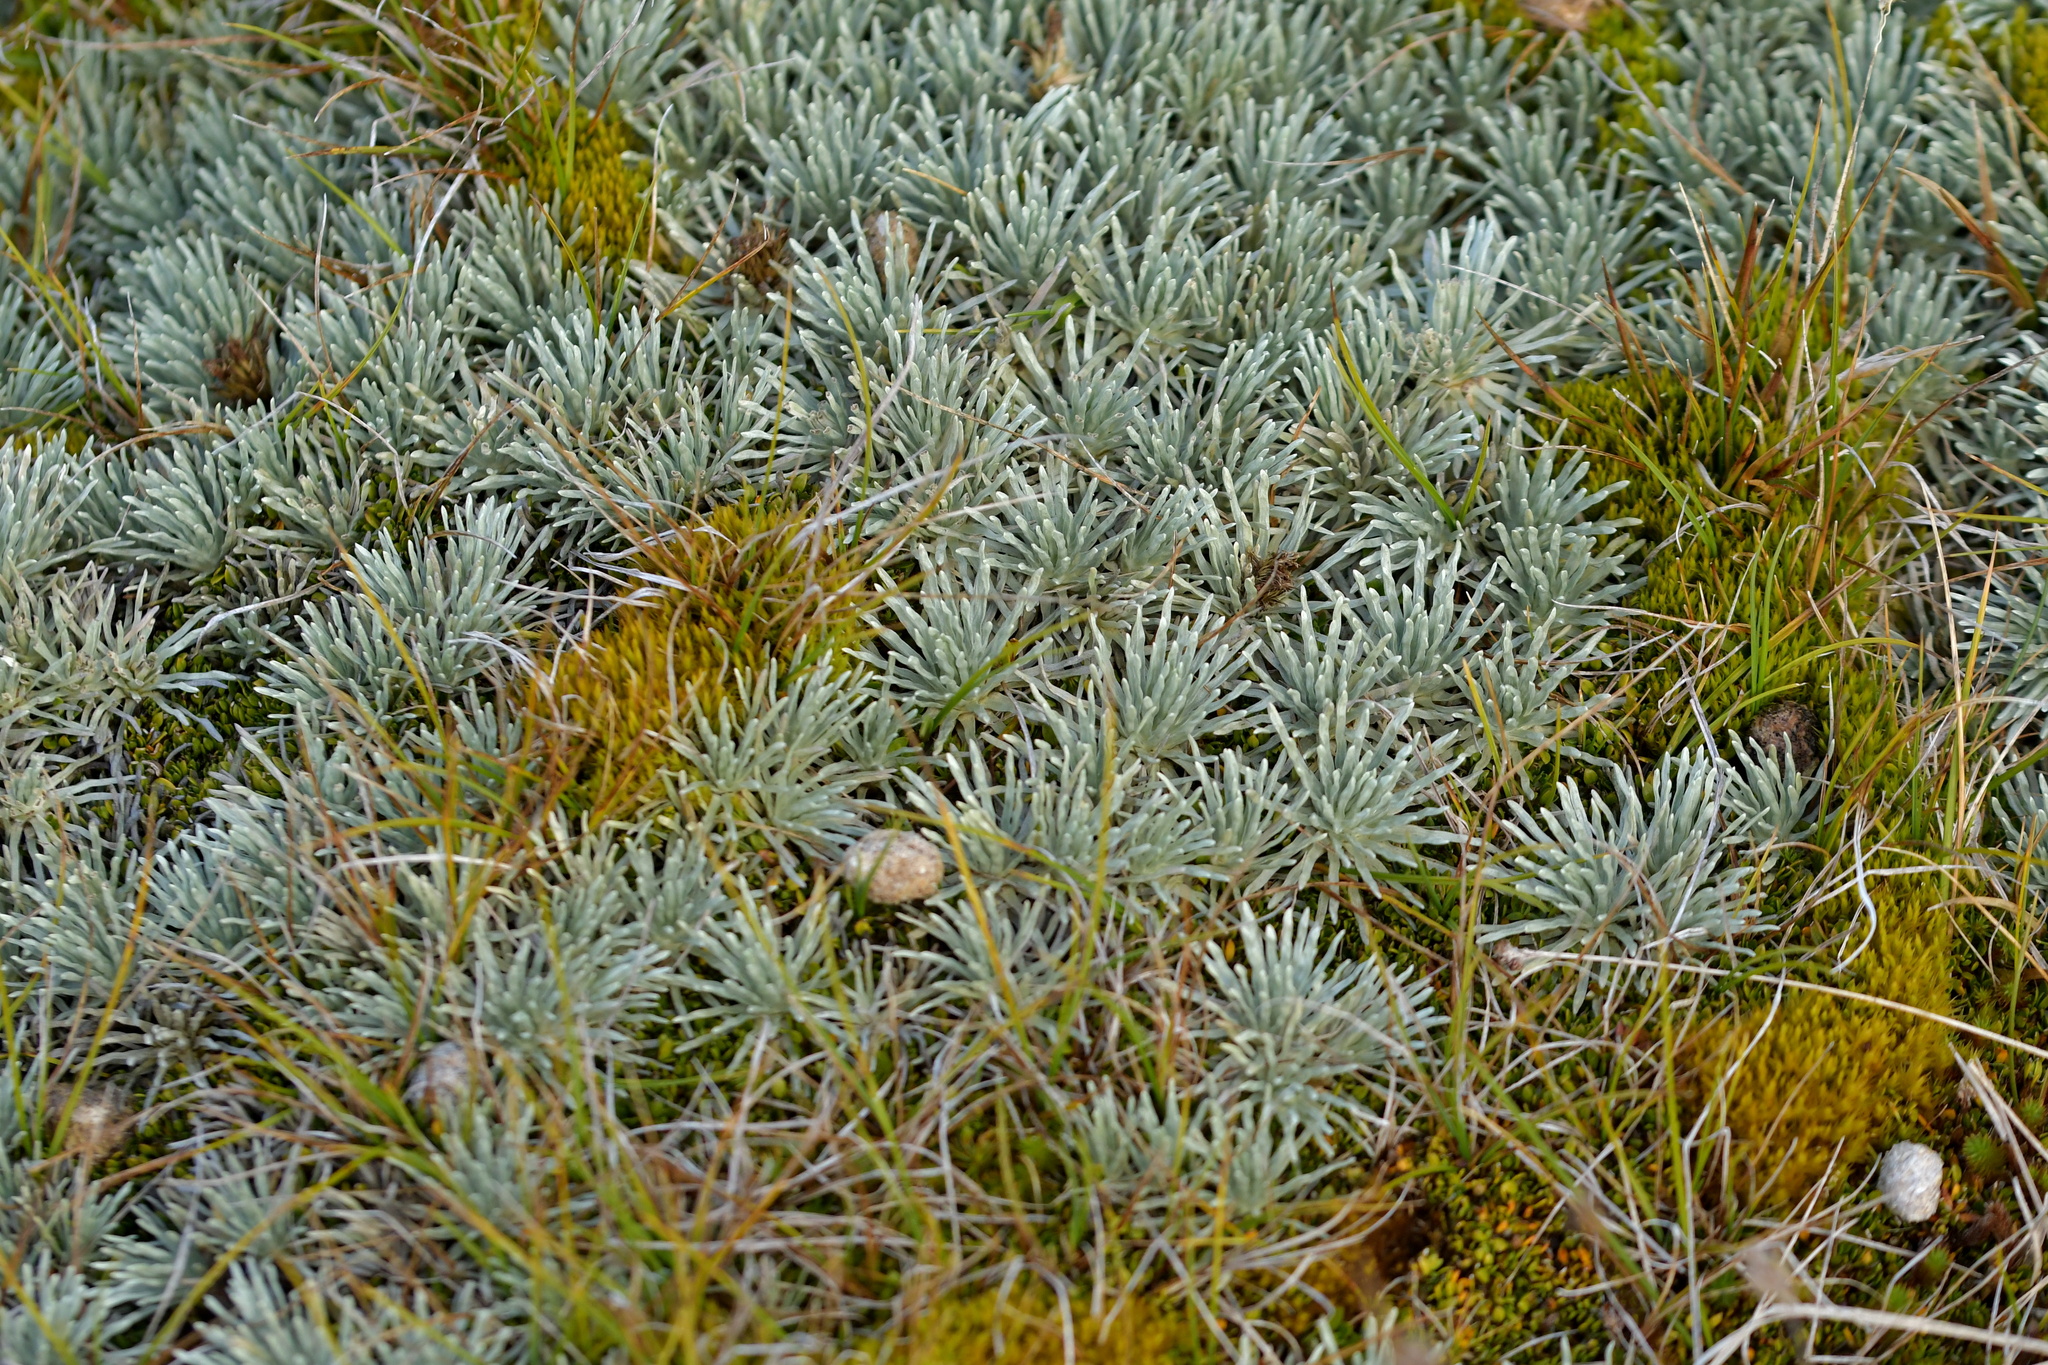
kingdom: Plantae
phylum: Tracheophyta
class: Magnoliopsida
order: Asterales
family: Asteraceae
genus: Celmisia
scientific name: Celmisia sessiliflora
